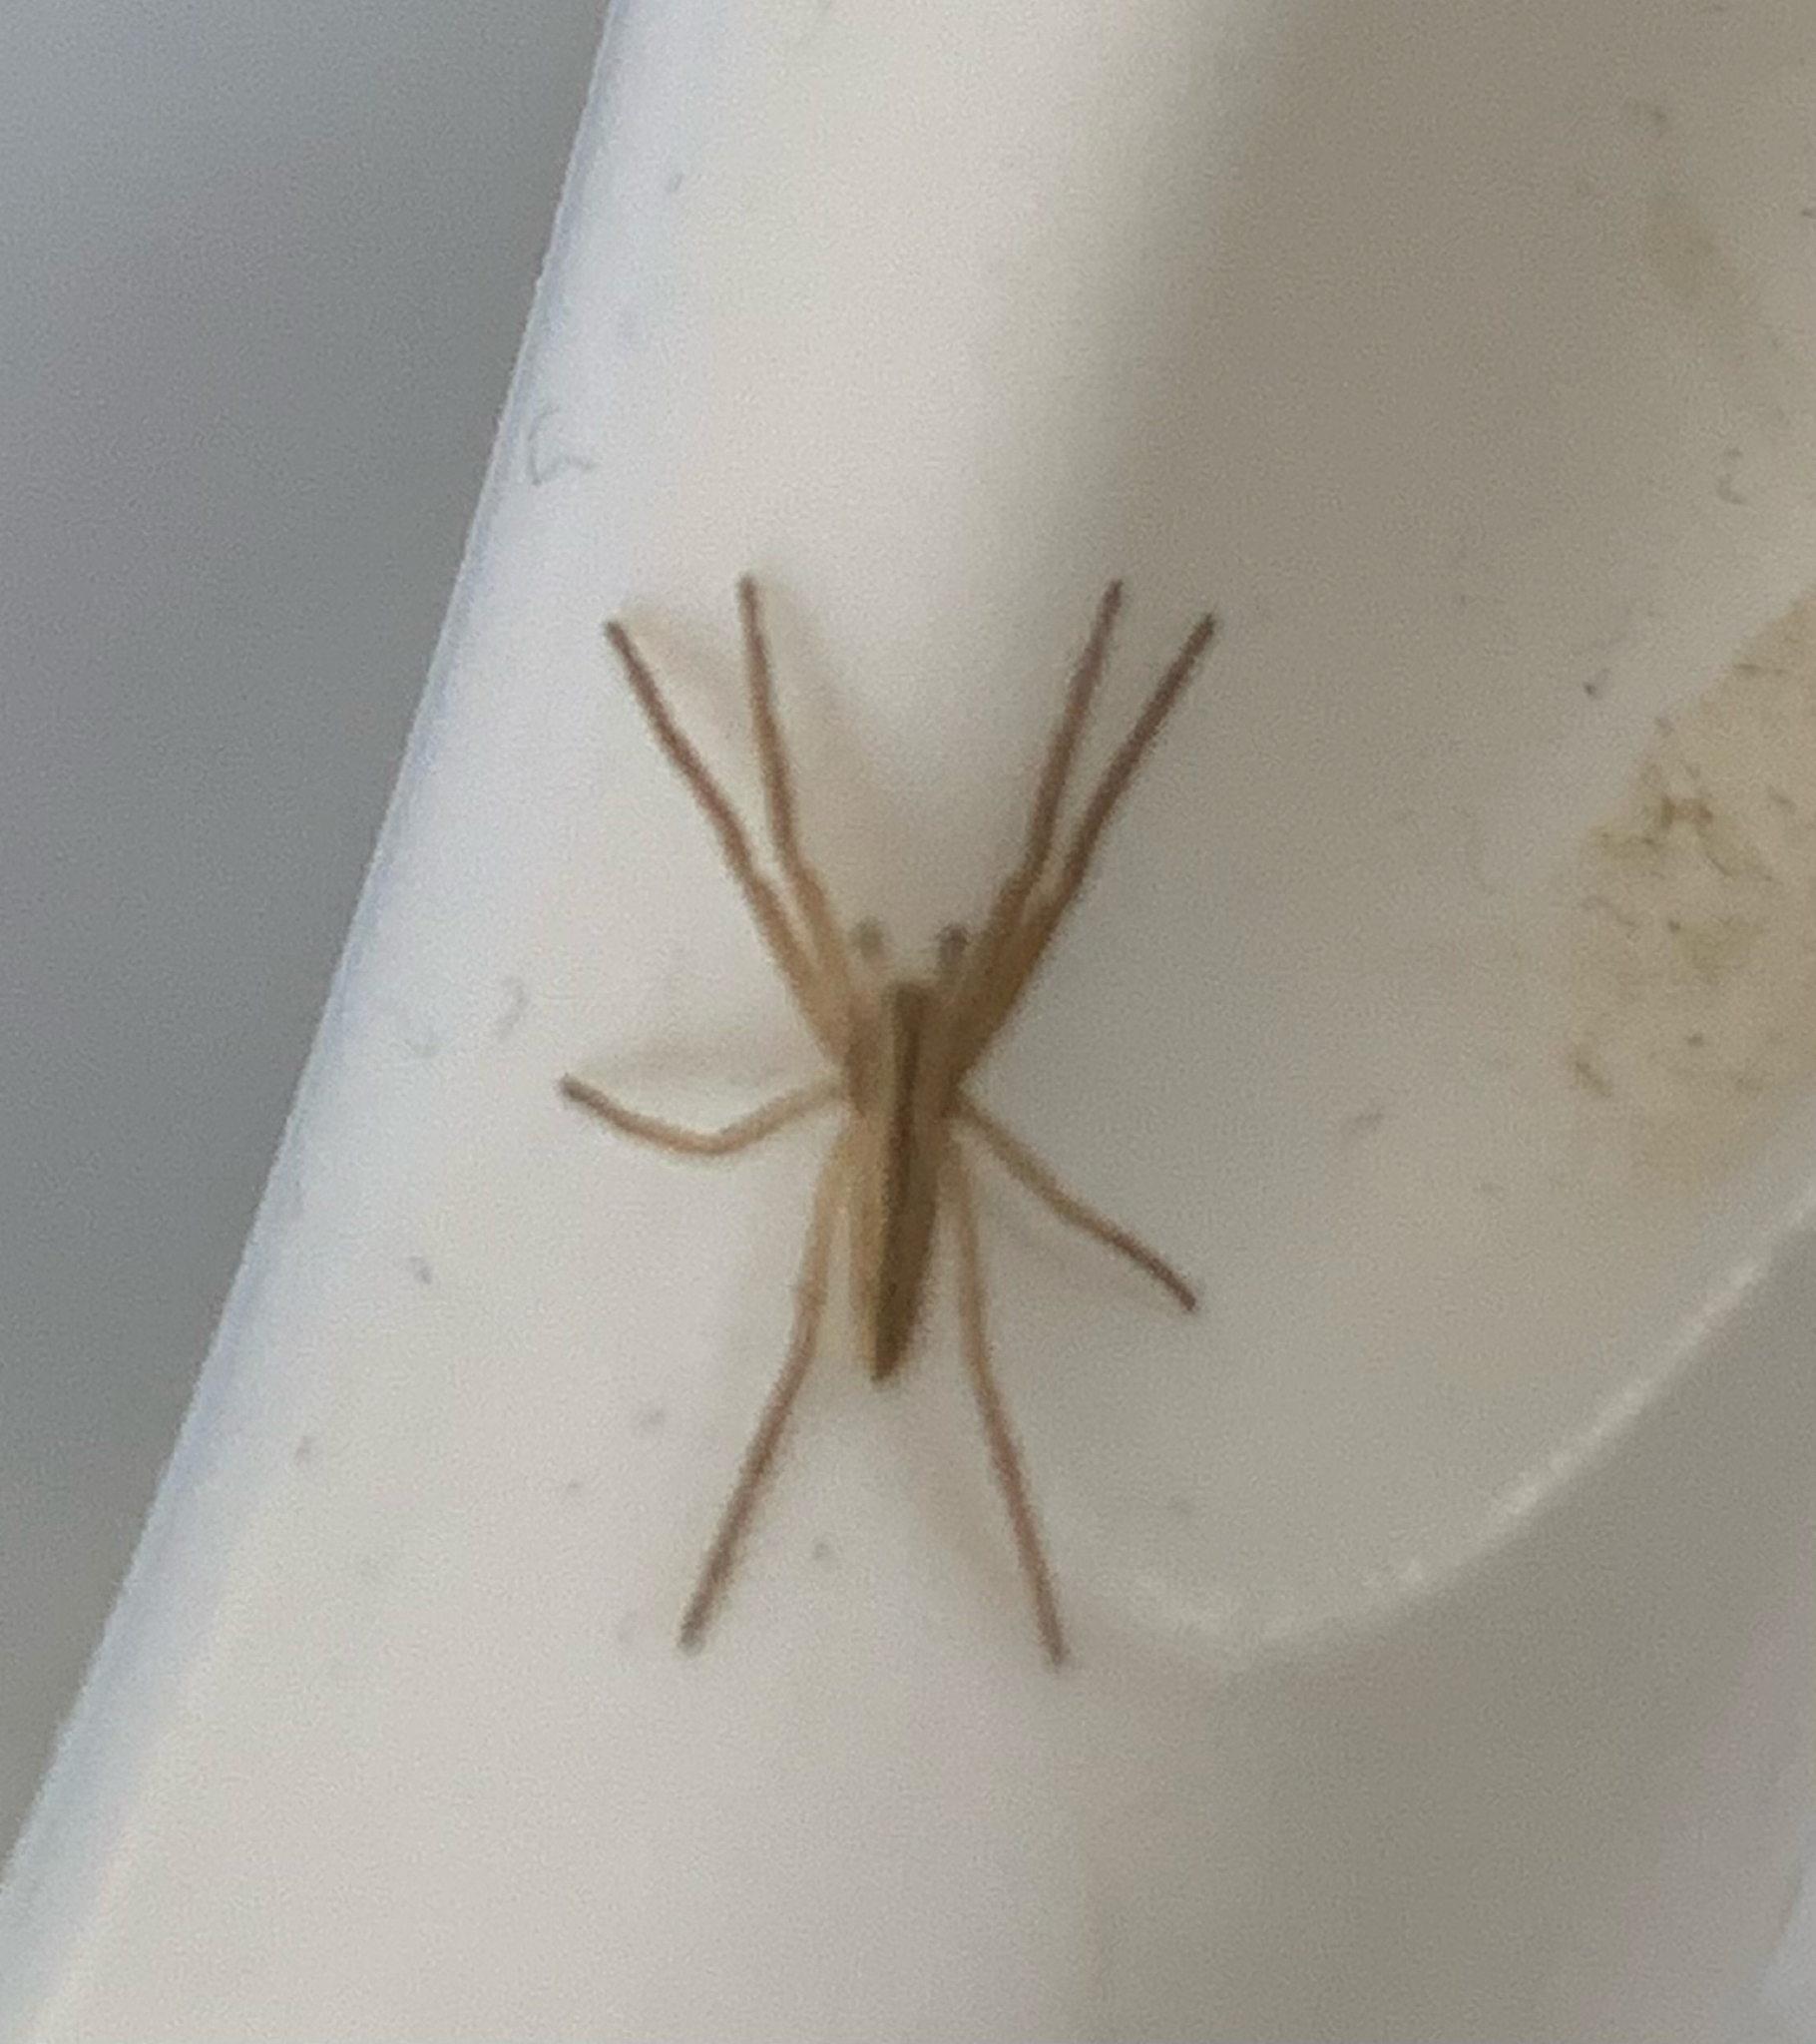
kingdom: Animalia
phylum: Arthropoda
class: Arachnida
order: Araneae
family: Philodromidae
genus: Tibellus
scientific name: Tibellus
